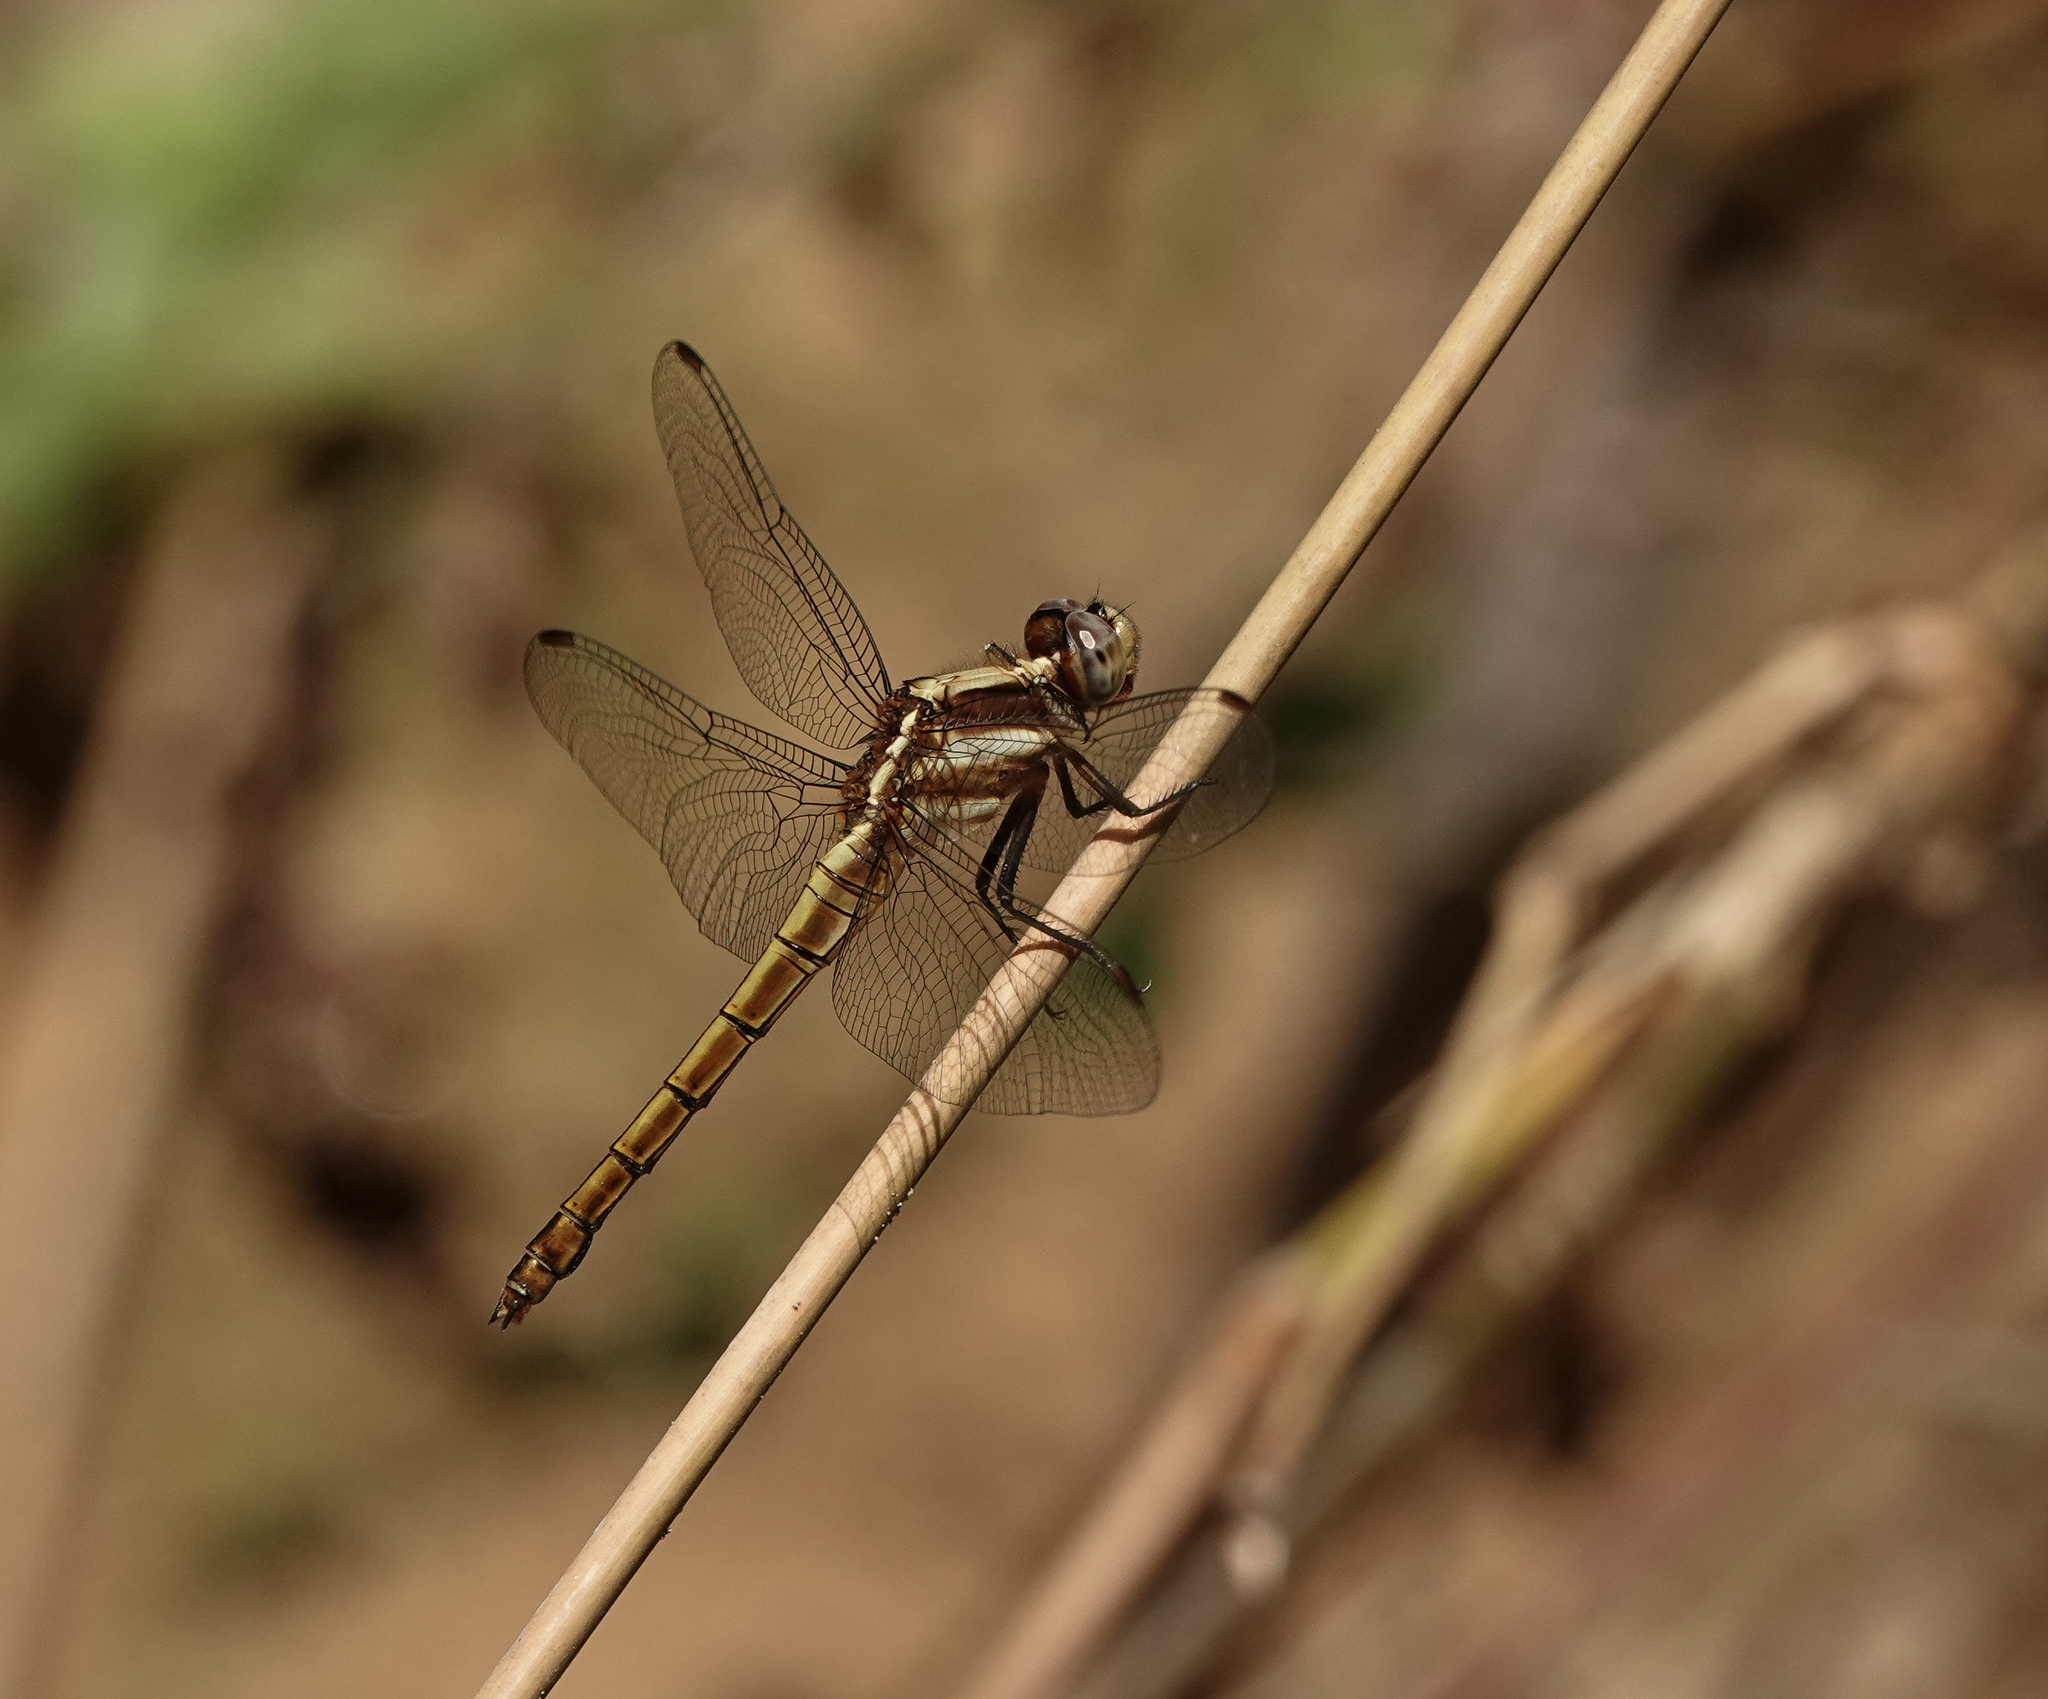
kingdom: Animalia
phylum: Arthropoda
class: Insecta
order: Odonata
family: Libellulidae
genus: Orthetrum
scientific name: Orthetrum glaucum
